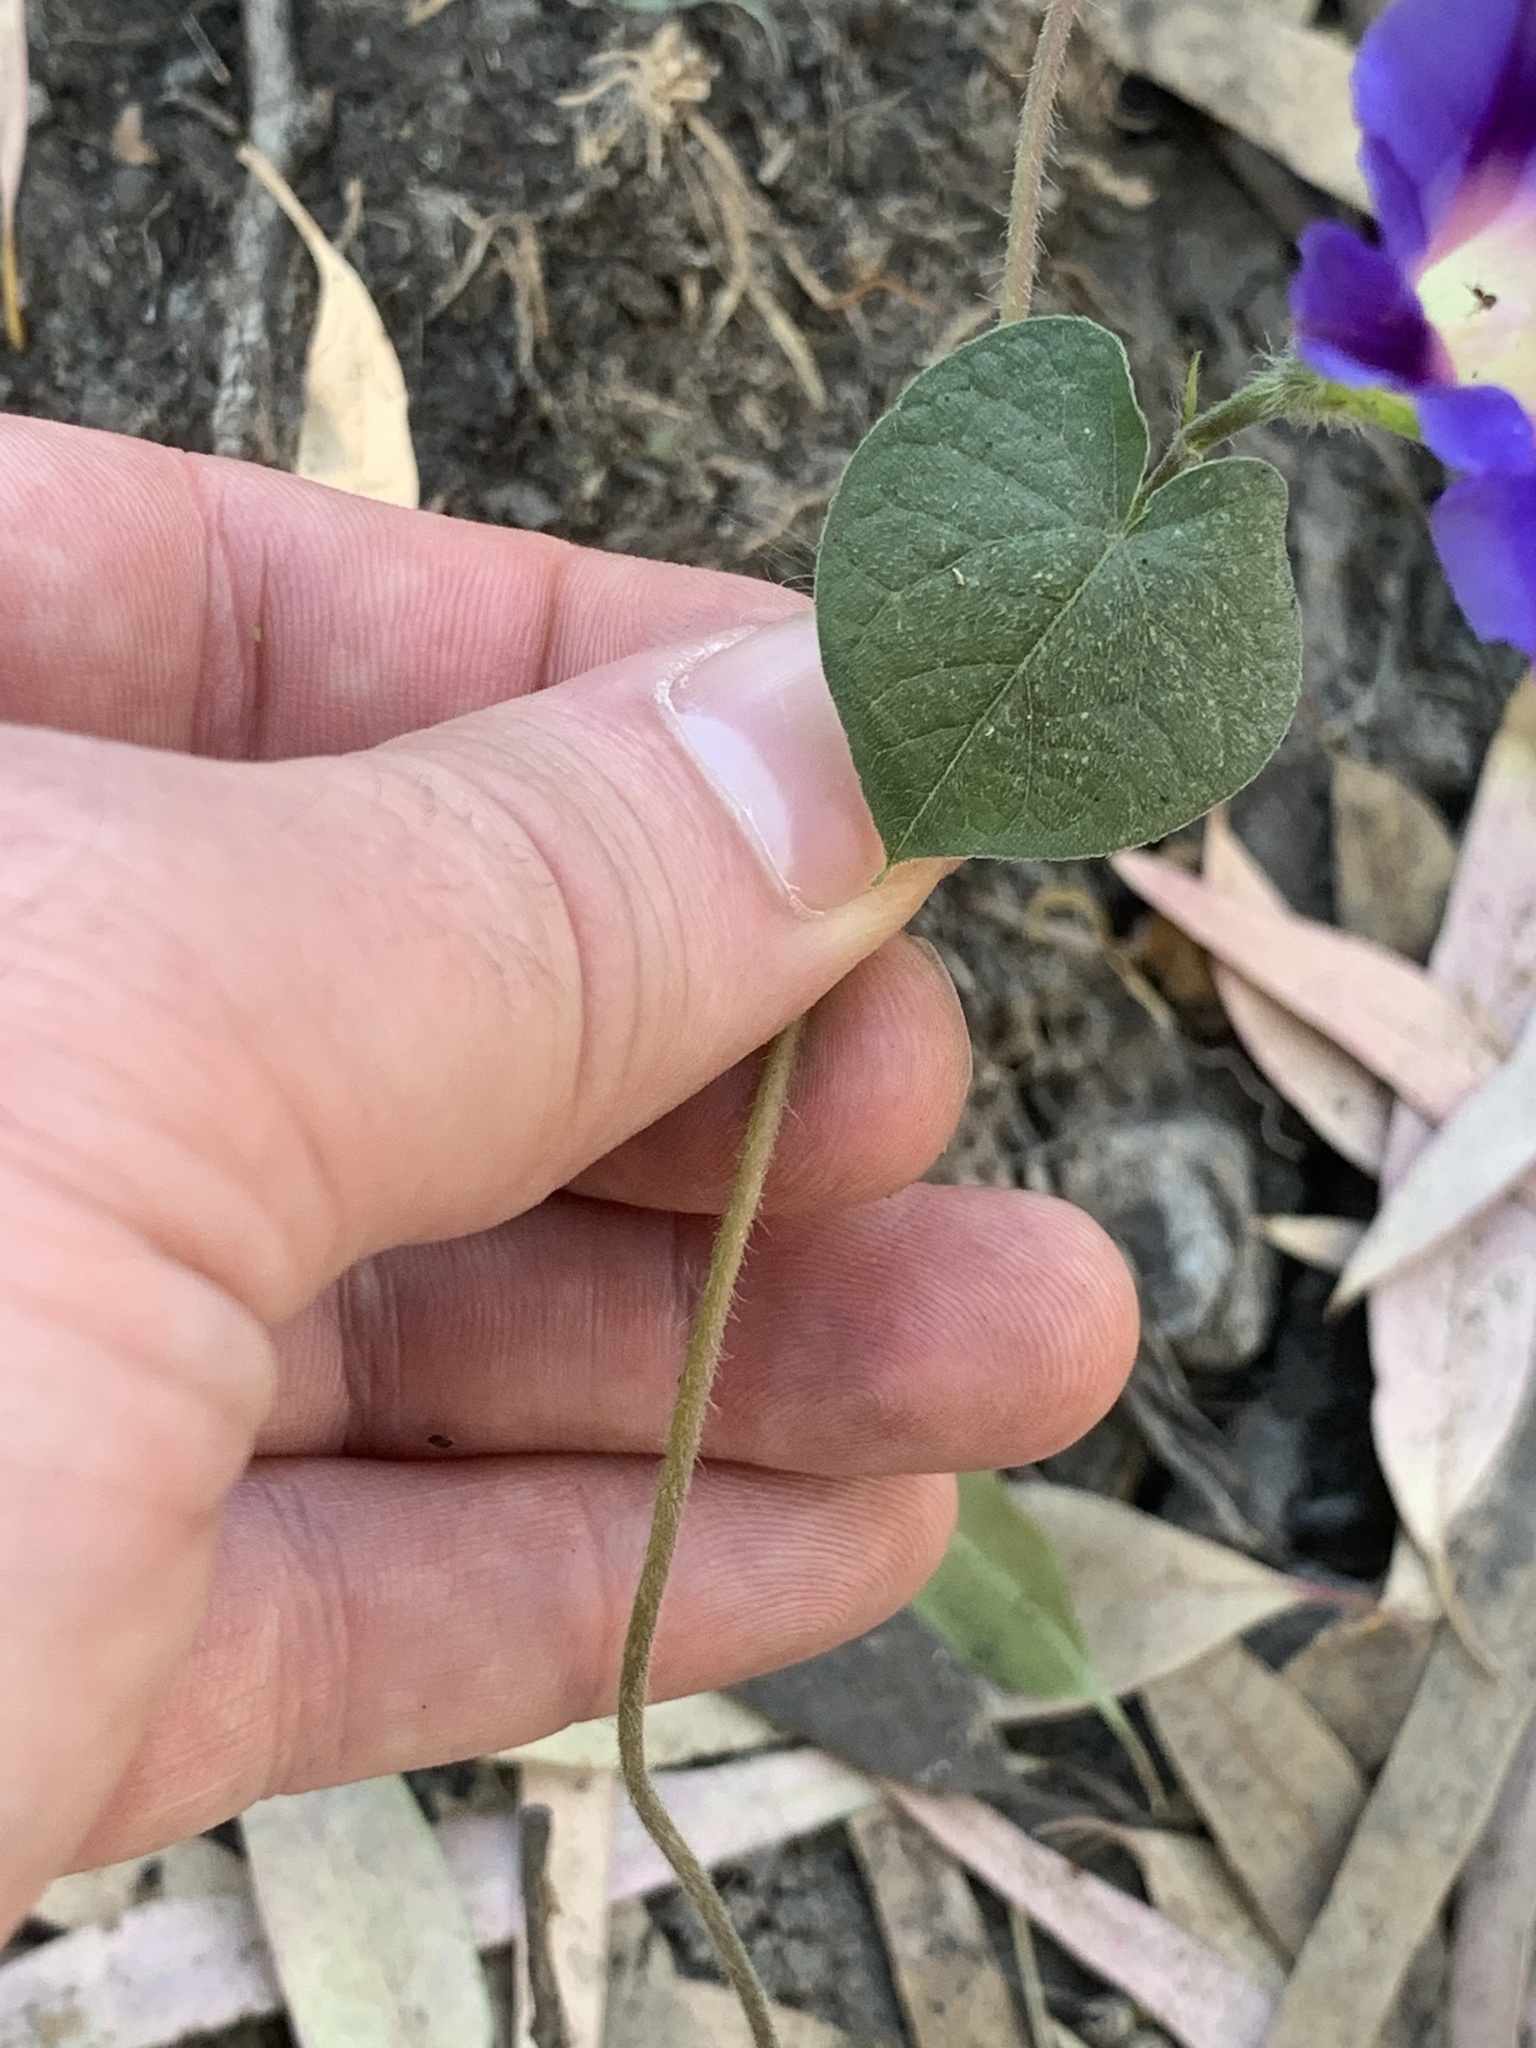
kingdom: Plantae
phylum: Tracheophyta
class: Magnoliopsida
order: Solanales
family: Convolvulaceae
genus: Ipomoea
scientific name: Ipomoea purpurea
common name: Common morning-glory
